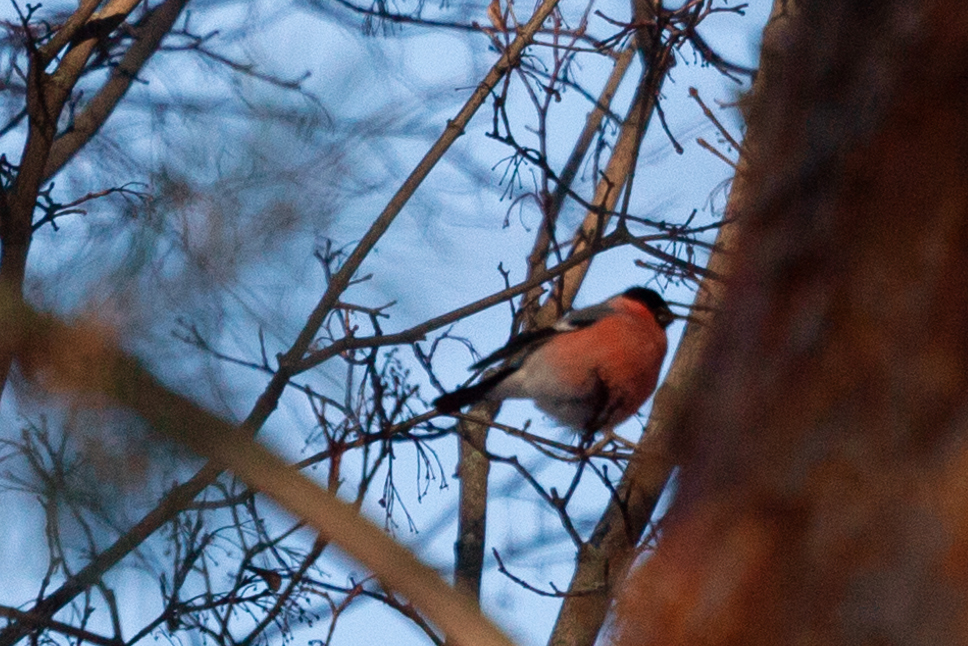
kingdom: Animalia
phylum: Chordata
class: Aves
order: Passeriformes
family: Fringillidae
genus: Pyrrhula
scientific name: Pyrrhula pyrrhula
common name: Eurasian bullfinch
